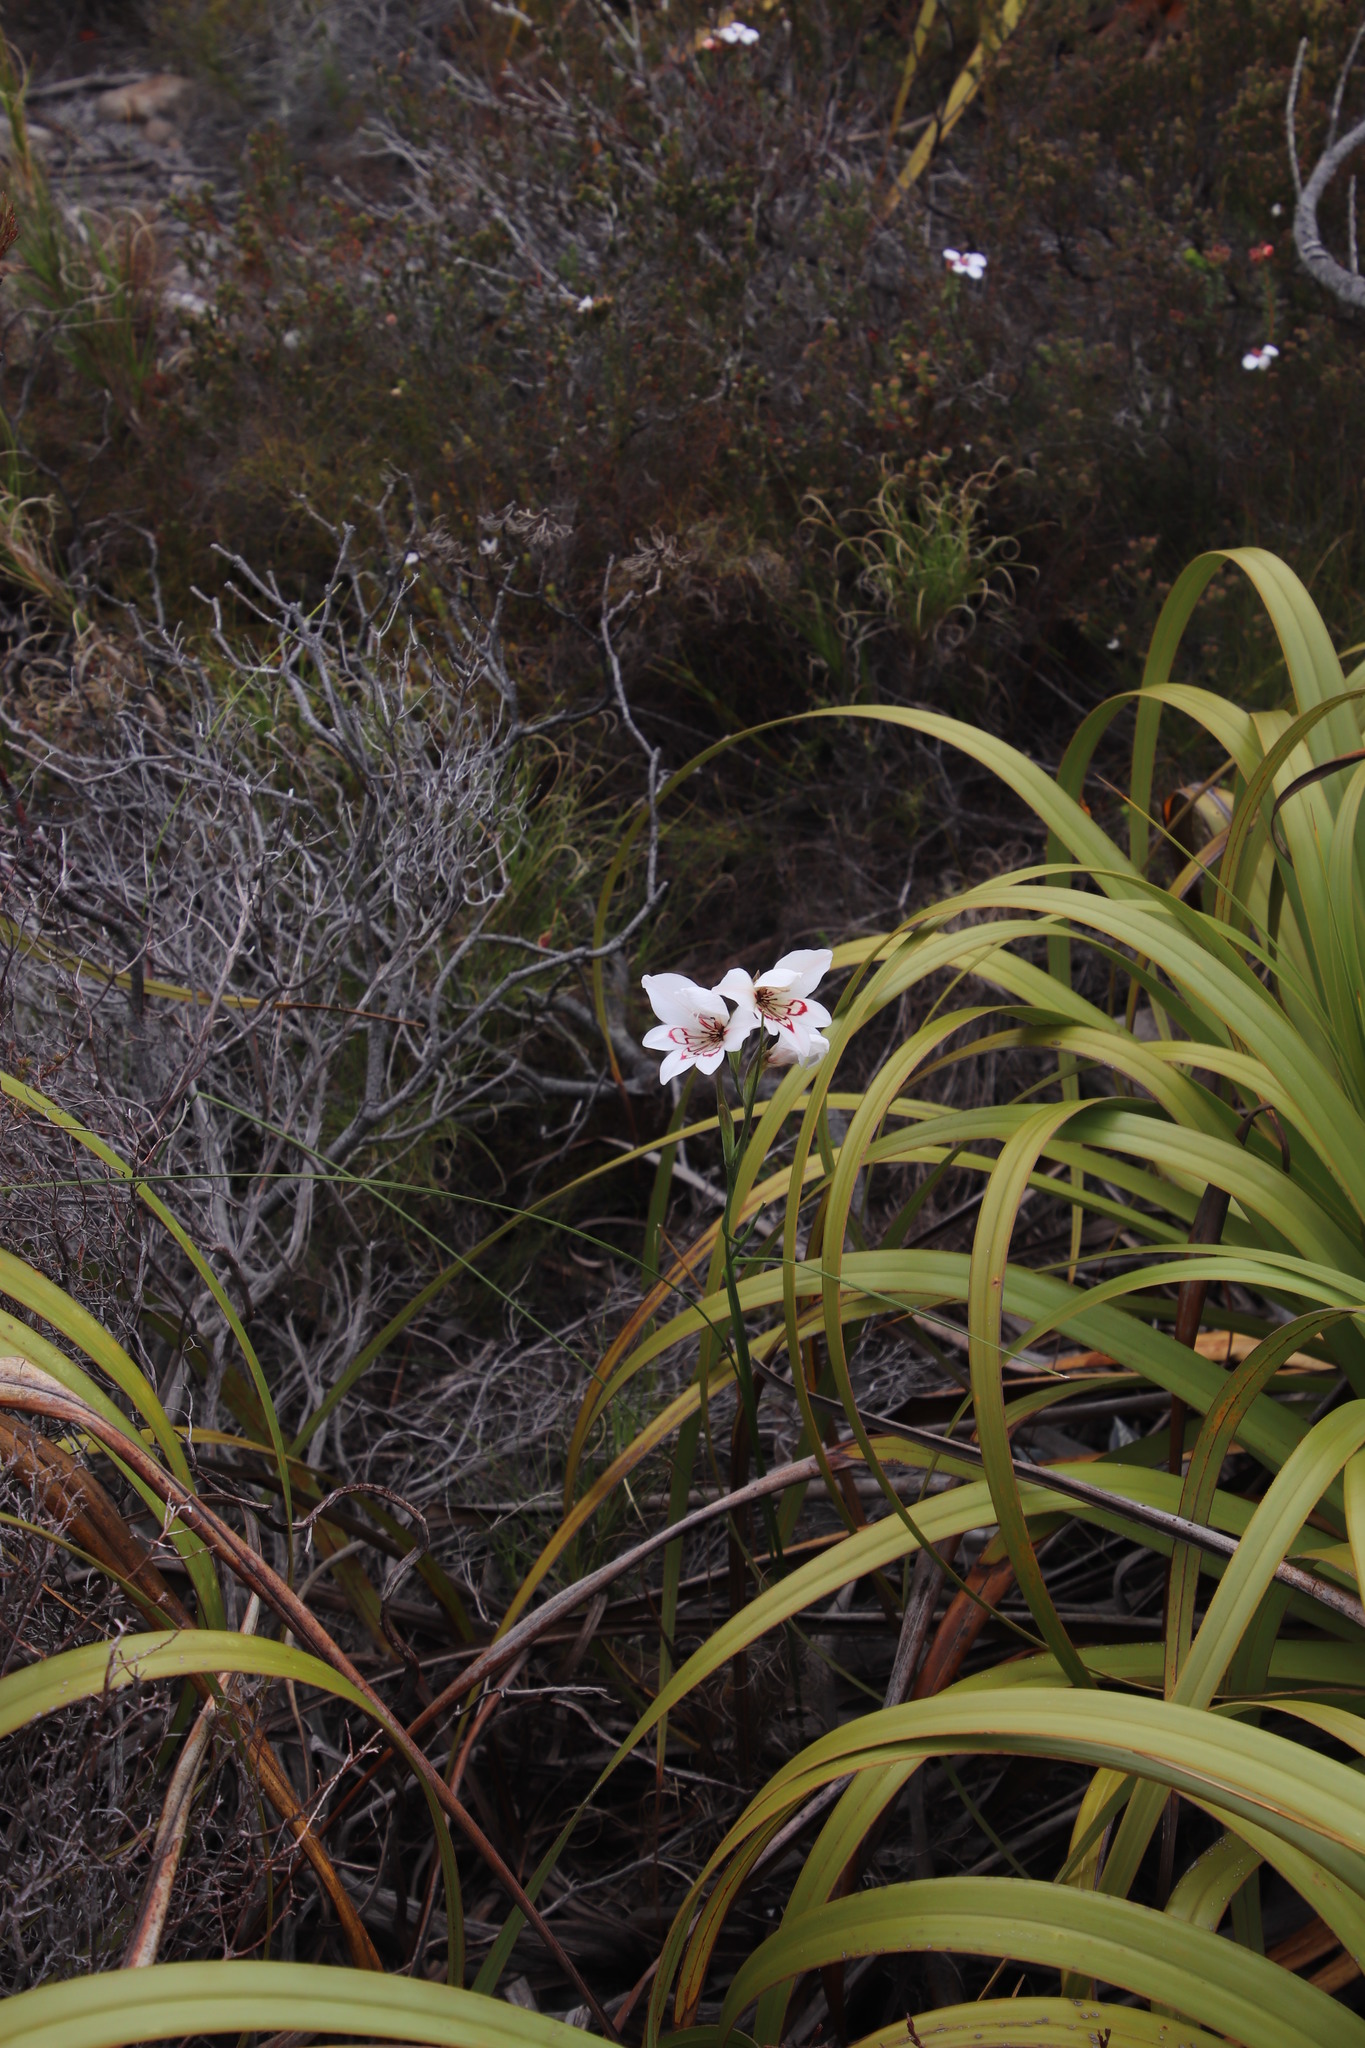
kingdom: Plantae
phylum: Tracheophyta
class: Liliopsida
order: Asparagales
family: Iridaceae
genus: Gladiolus
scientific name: Gladiolus debilis
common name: Painted-lady
